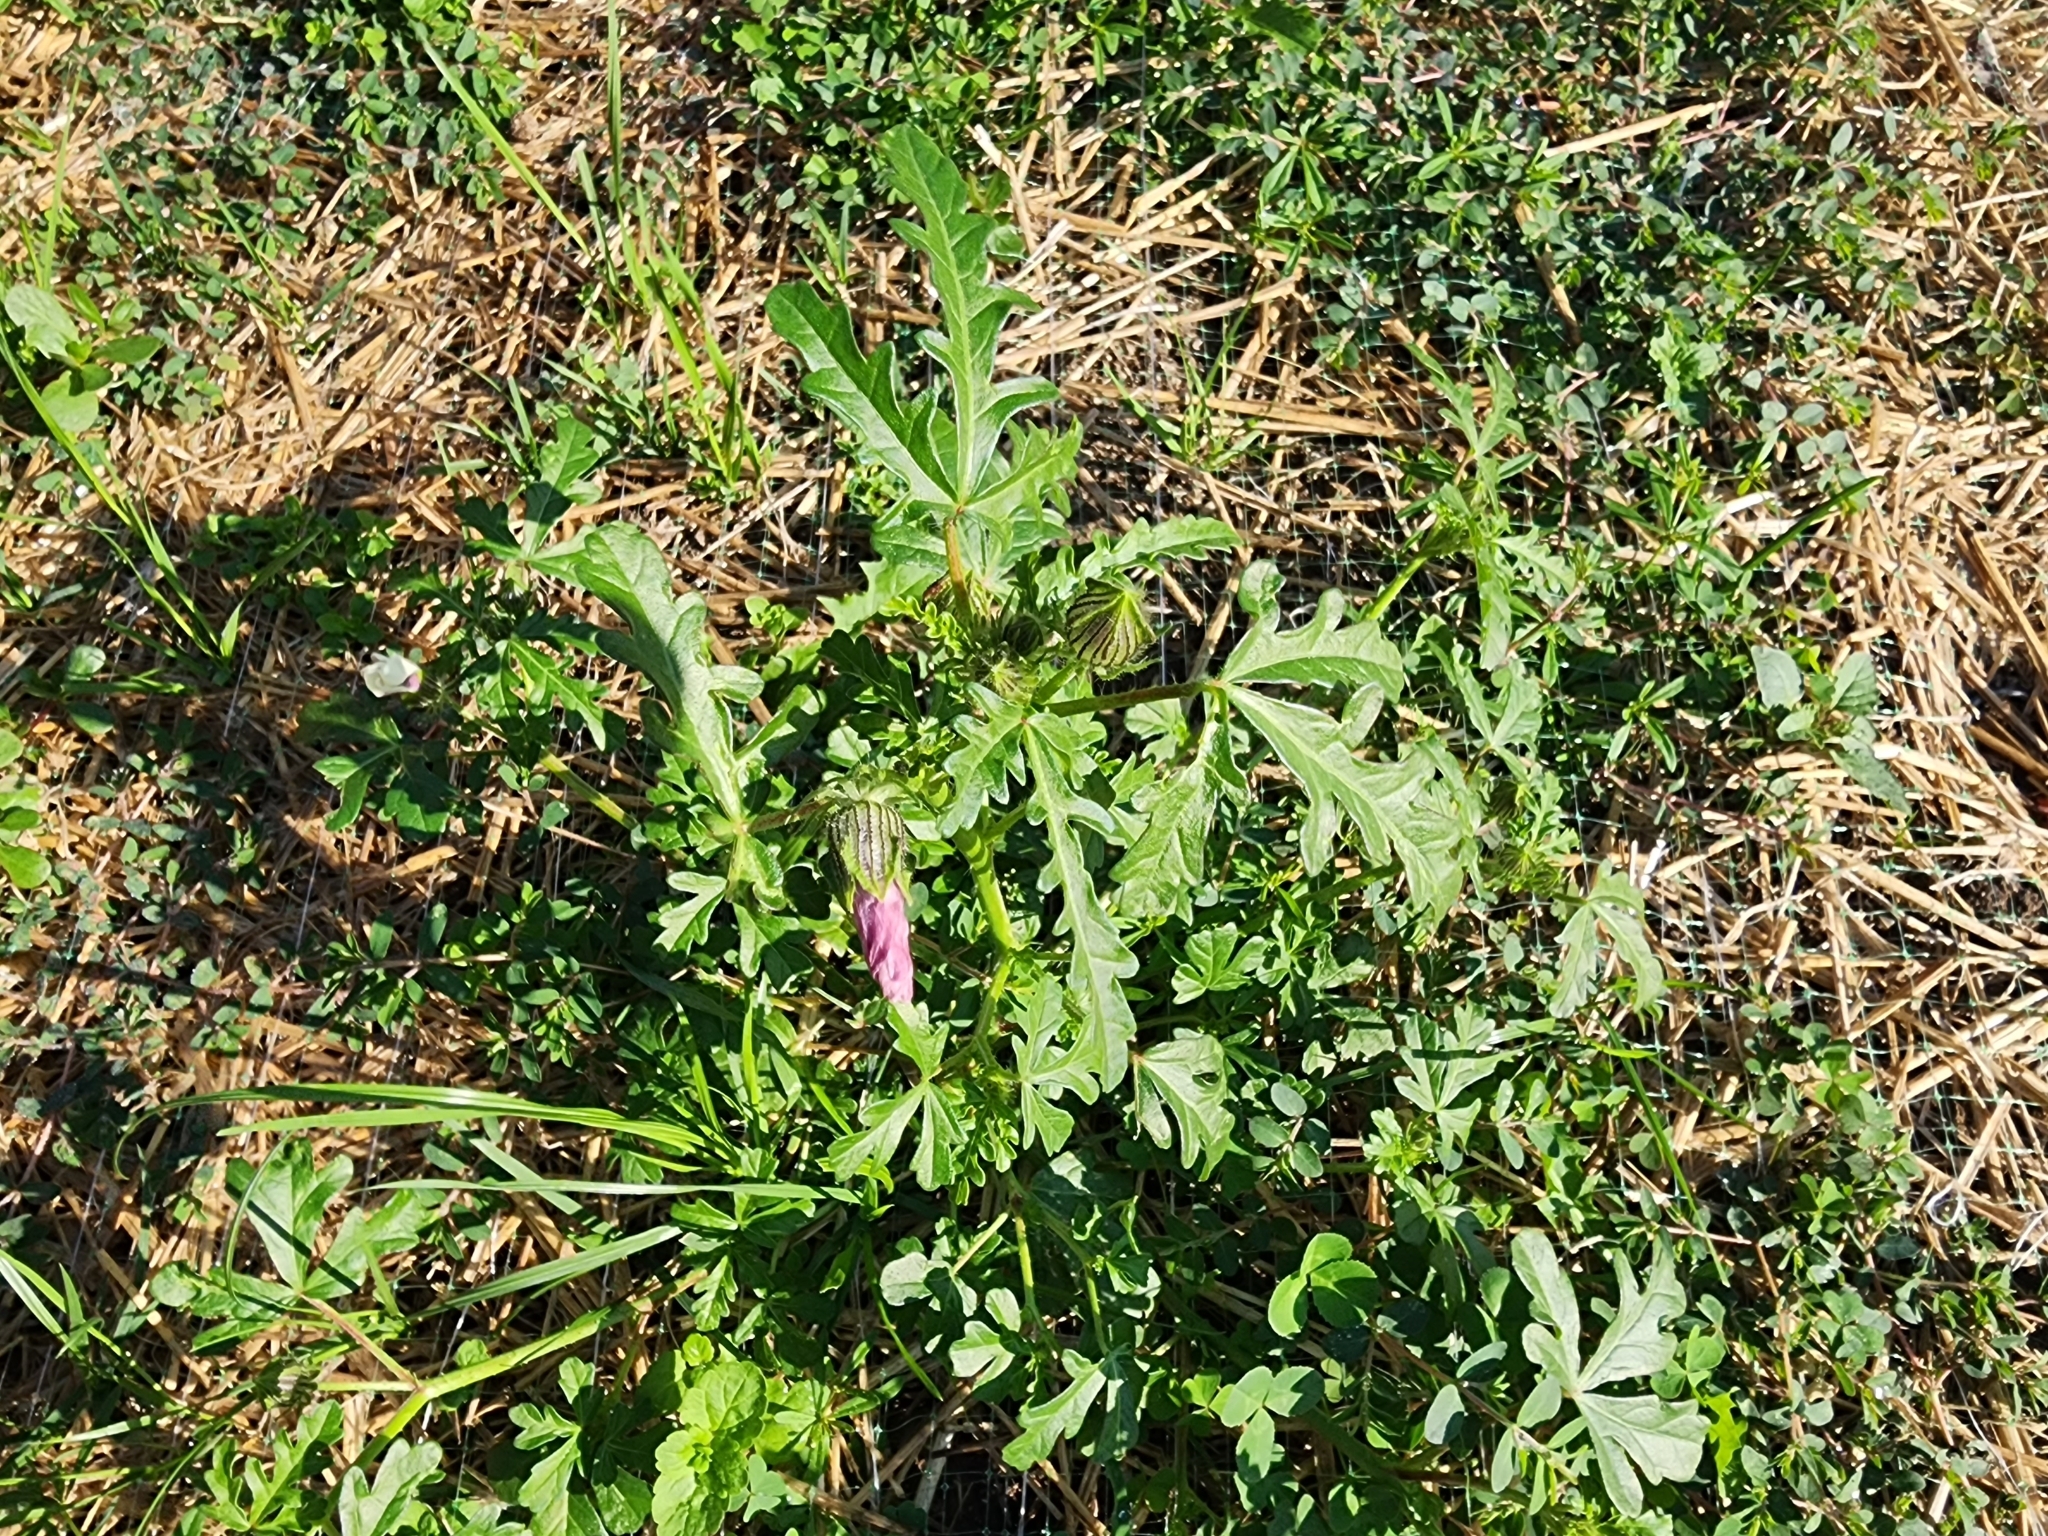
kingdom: Plantae
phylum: Tracheophyta
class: Magnoliopsida
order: Malvales
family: Malvaceae
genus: Hibiscus
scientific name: Hibiscus trionum
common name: Bladder ketmia
